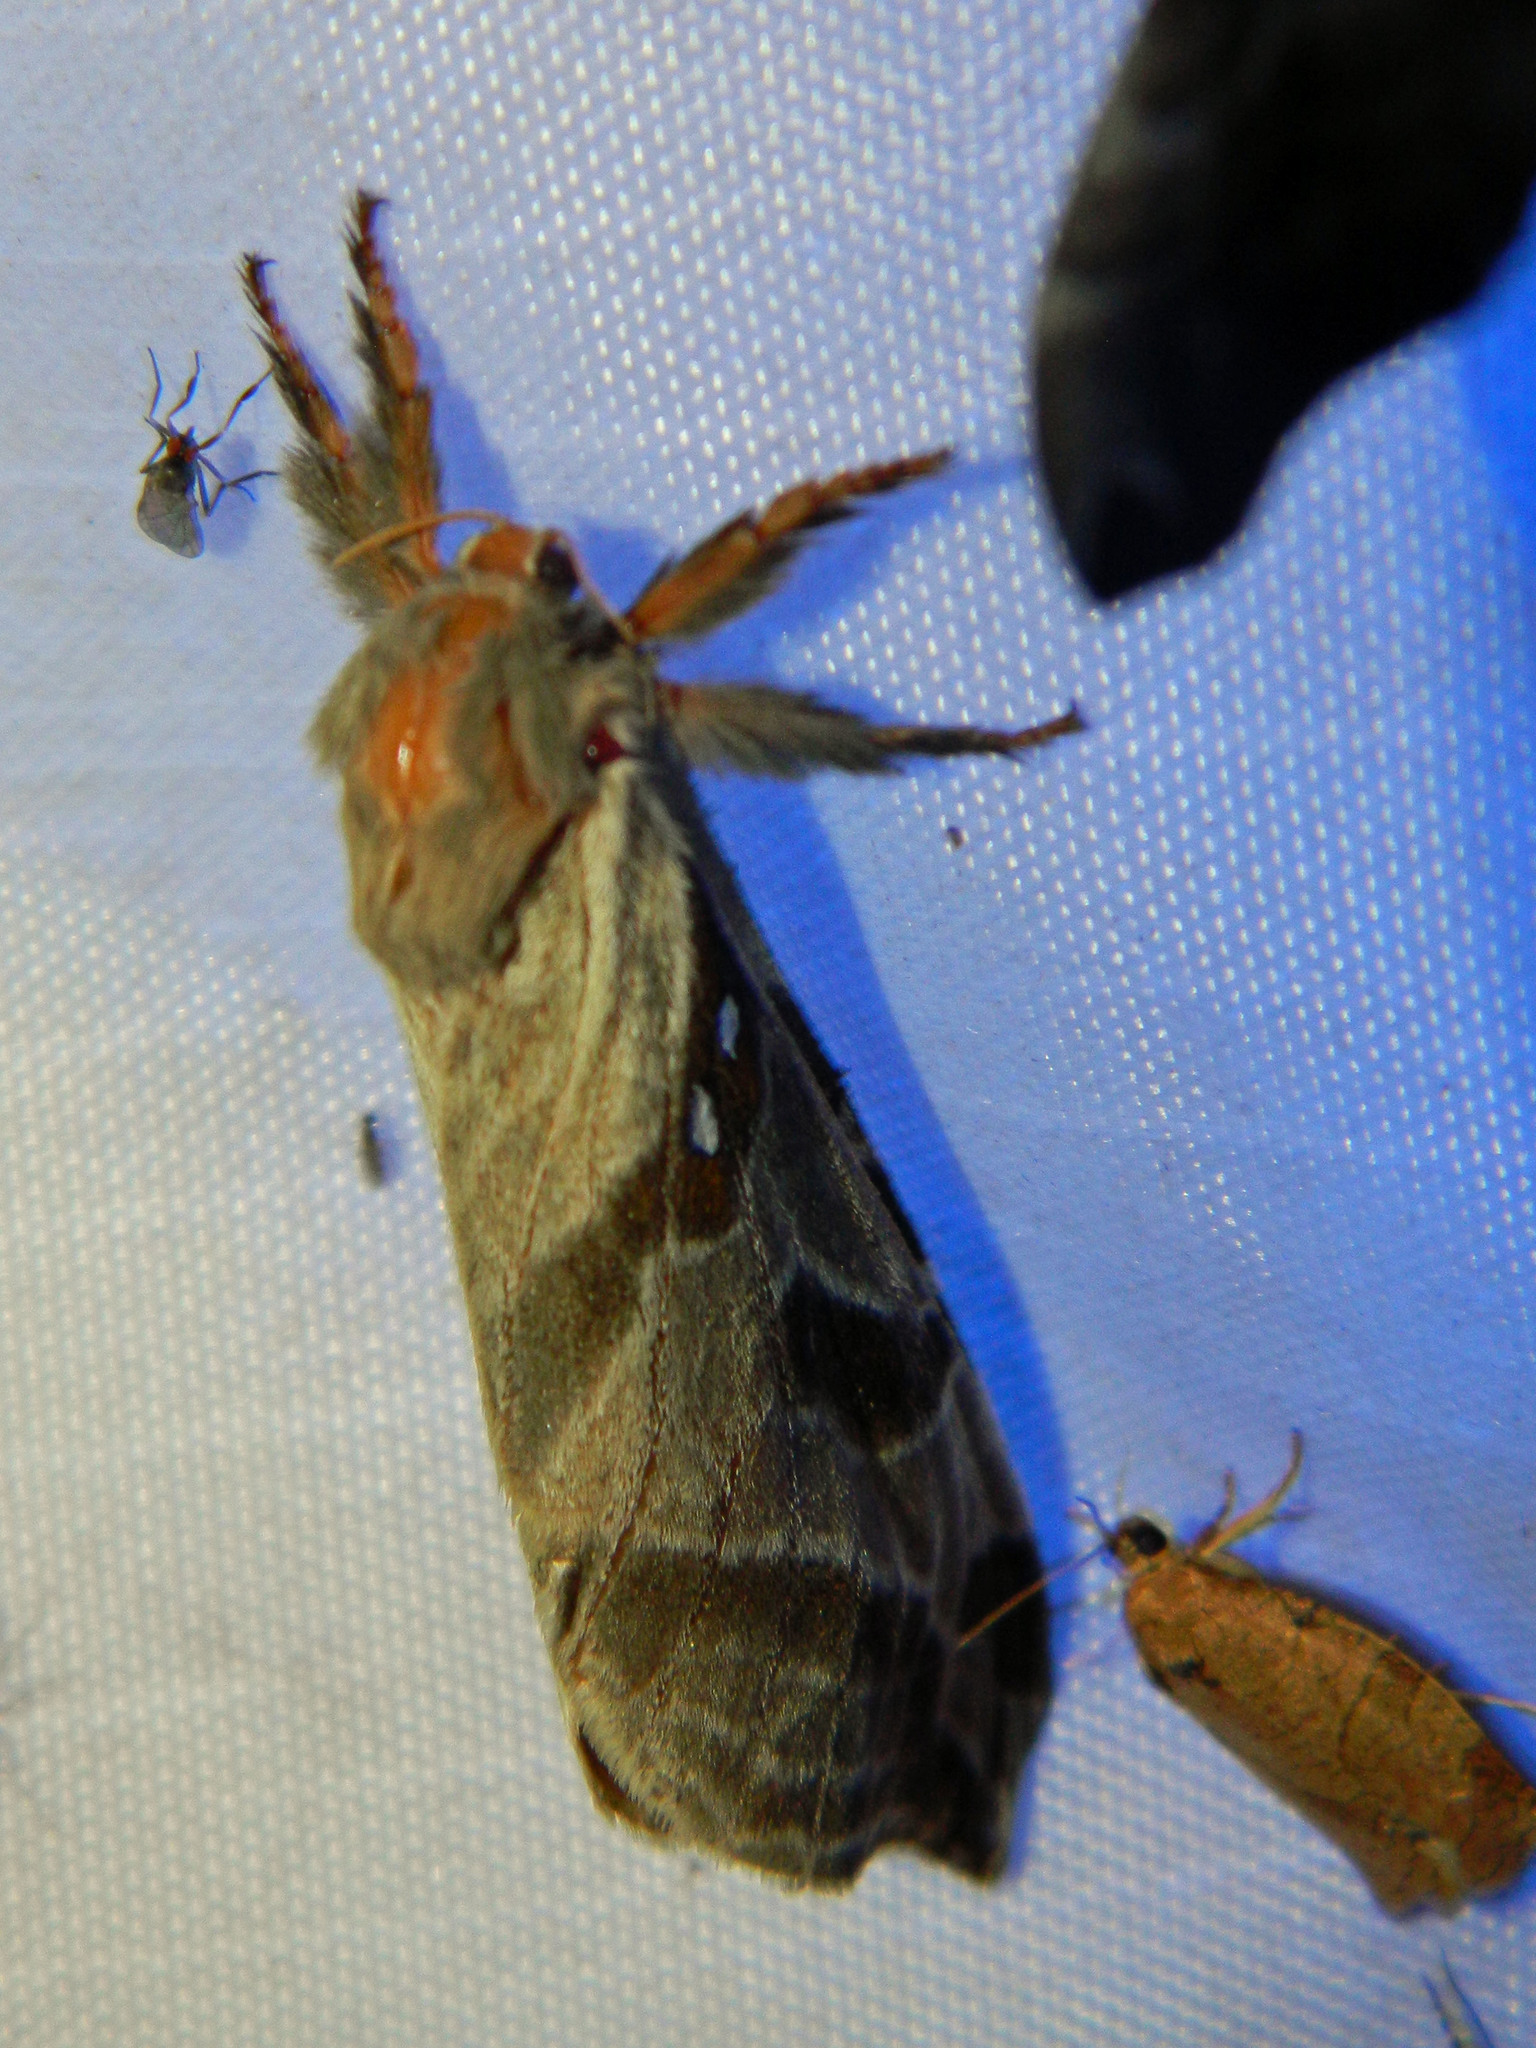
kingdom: Animalia
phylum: Arthropoda
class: Insecta
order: Lepidoptera
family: Hepialidae
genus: Sthenopis
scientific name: Sthenopis argenteomaculatus
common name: Silver-spotted ghost moth
